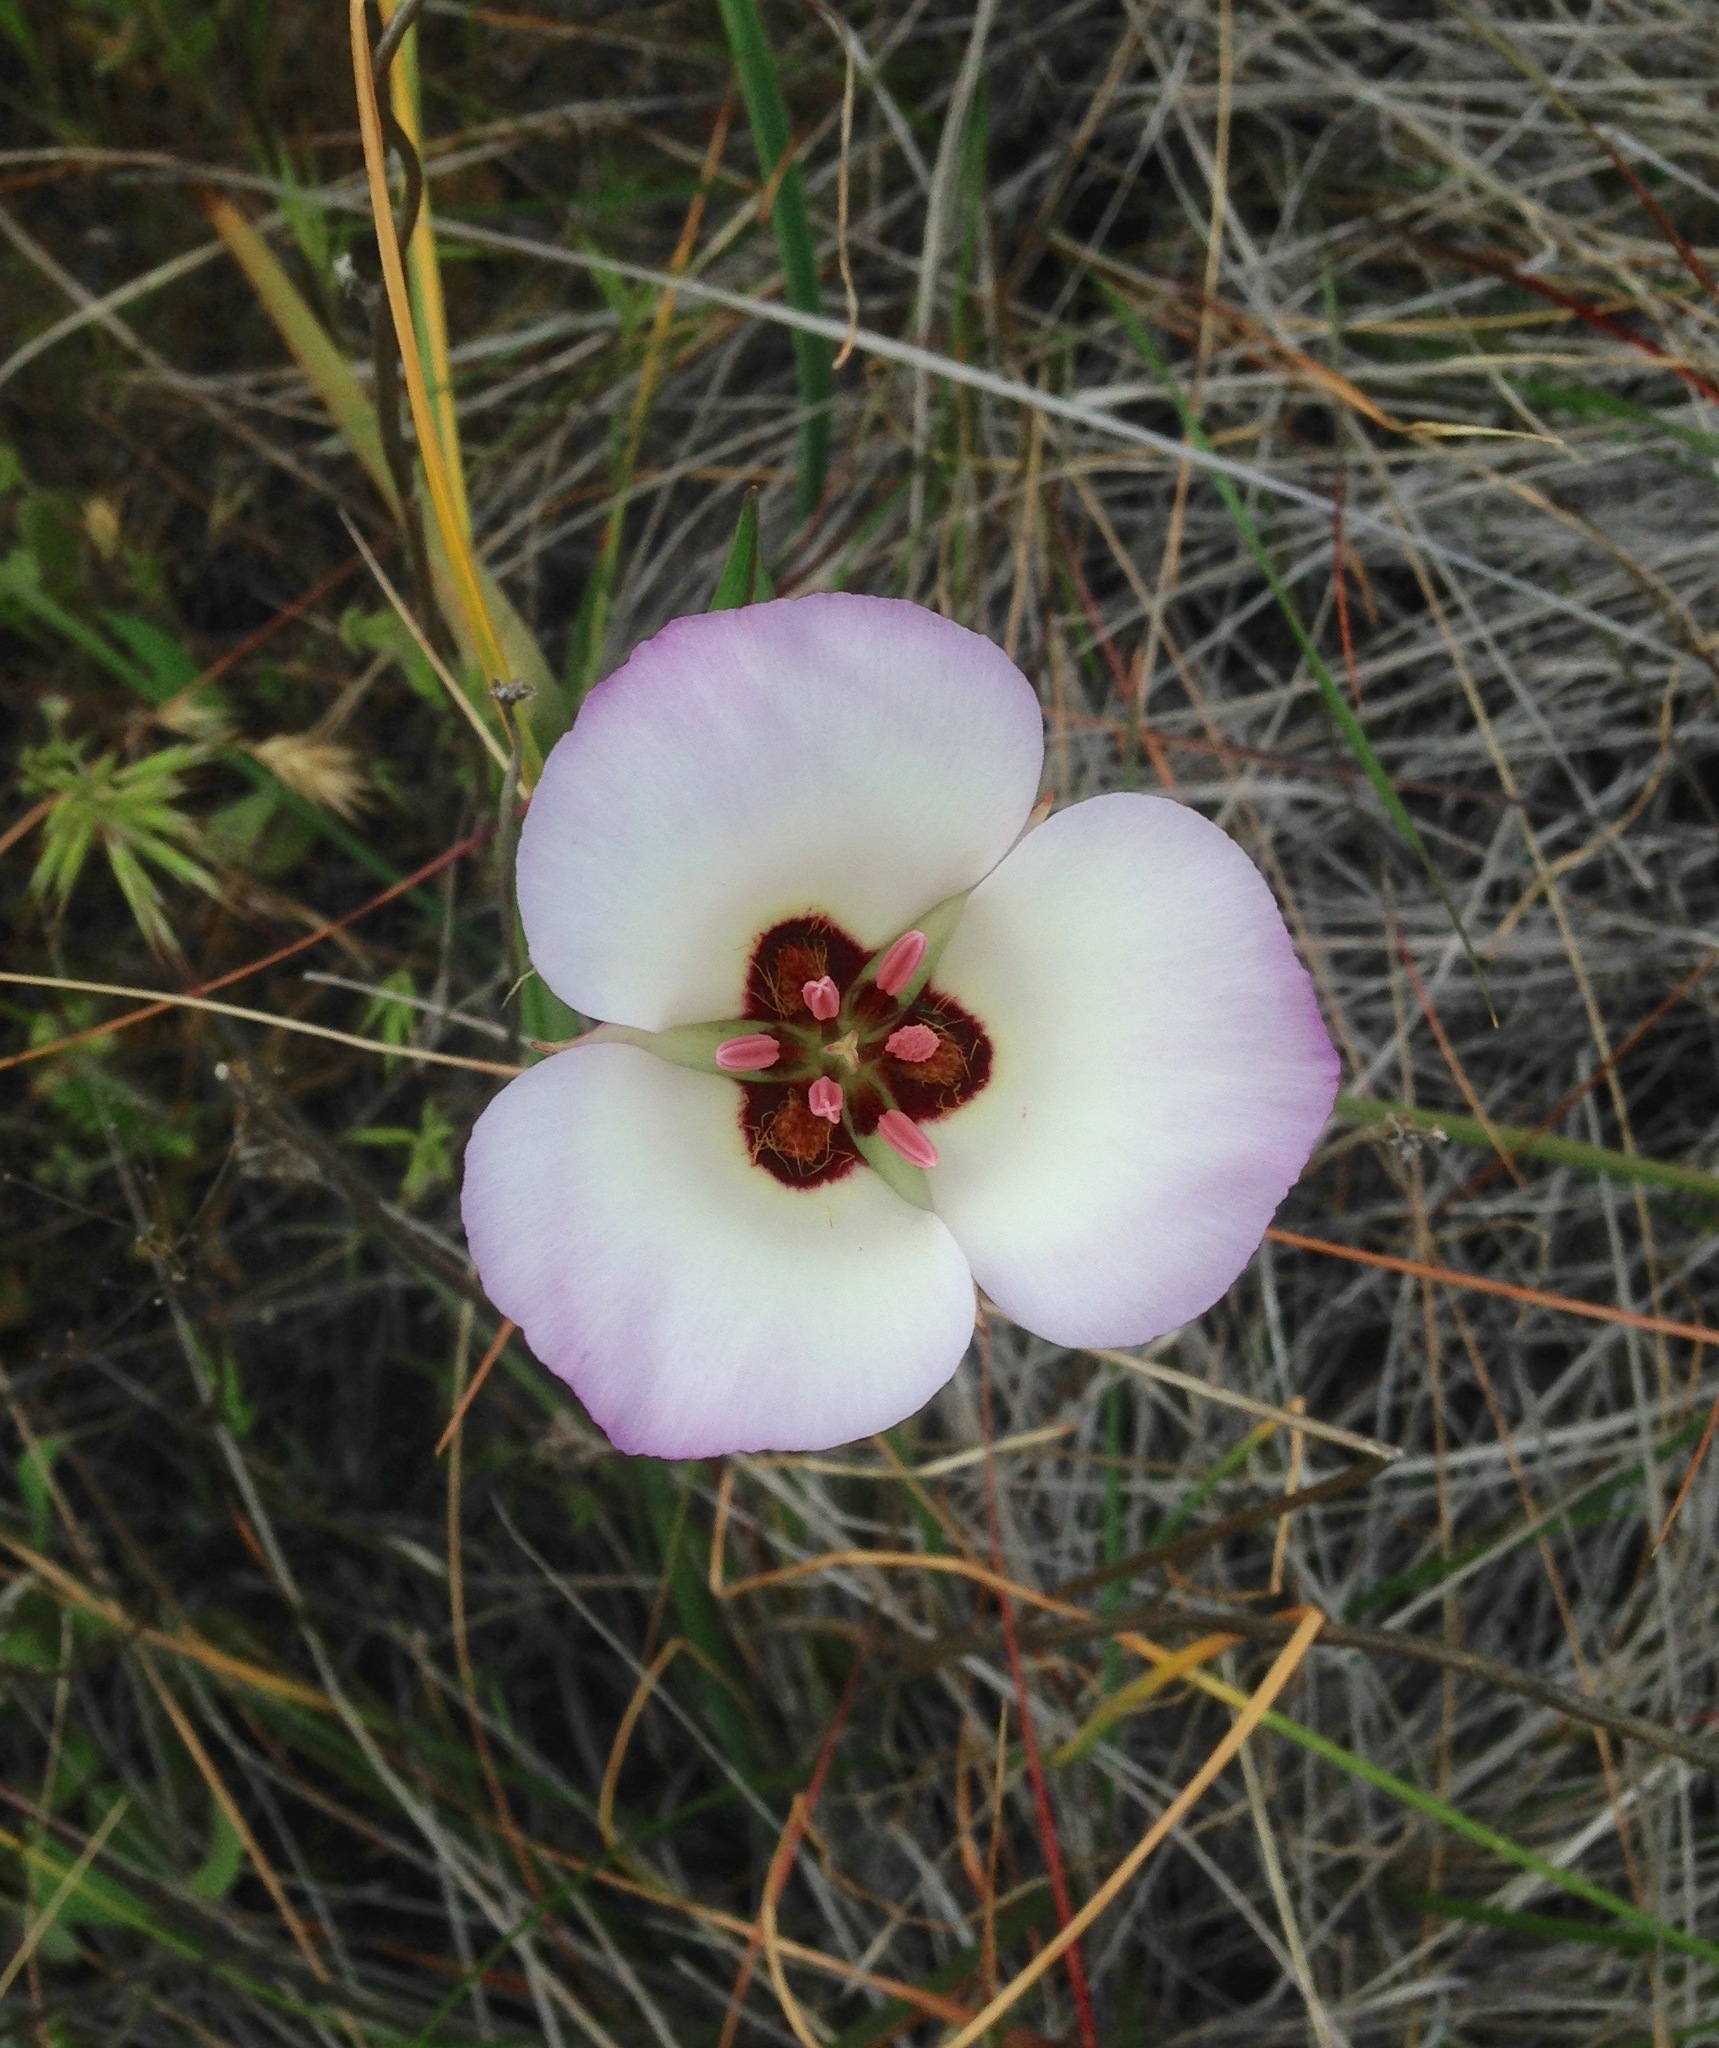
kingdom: Plantae
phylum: Tracheophyta
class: Liliopsida
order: Liliales
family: Liliaceae
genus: Calochortus
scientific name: Calochortus catalinae
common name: Catalina mariposa-lily
